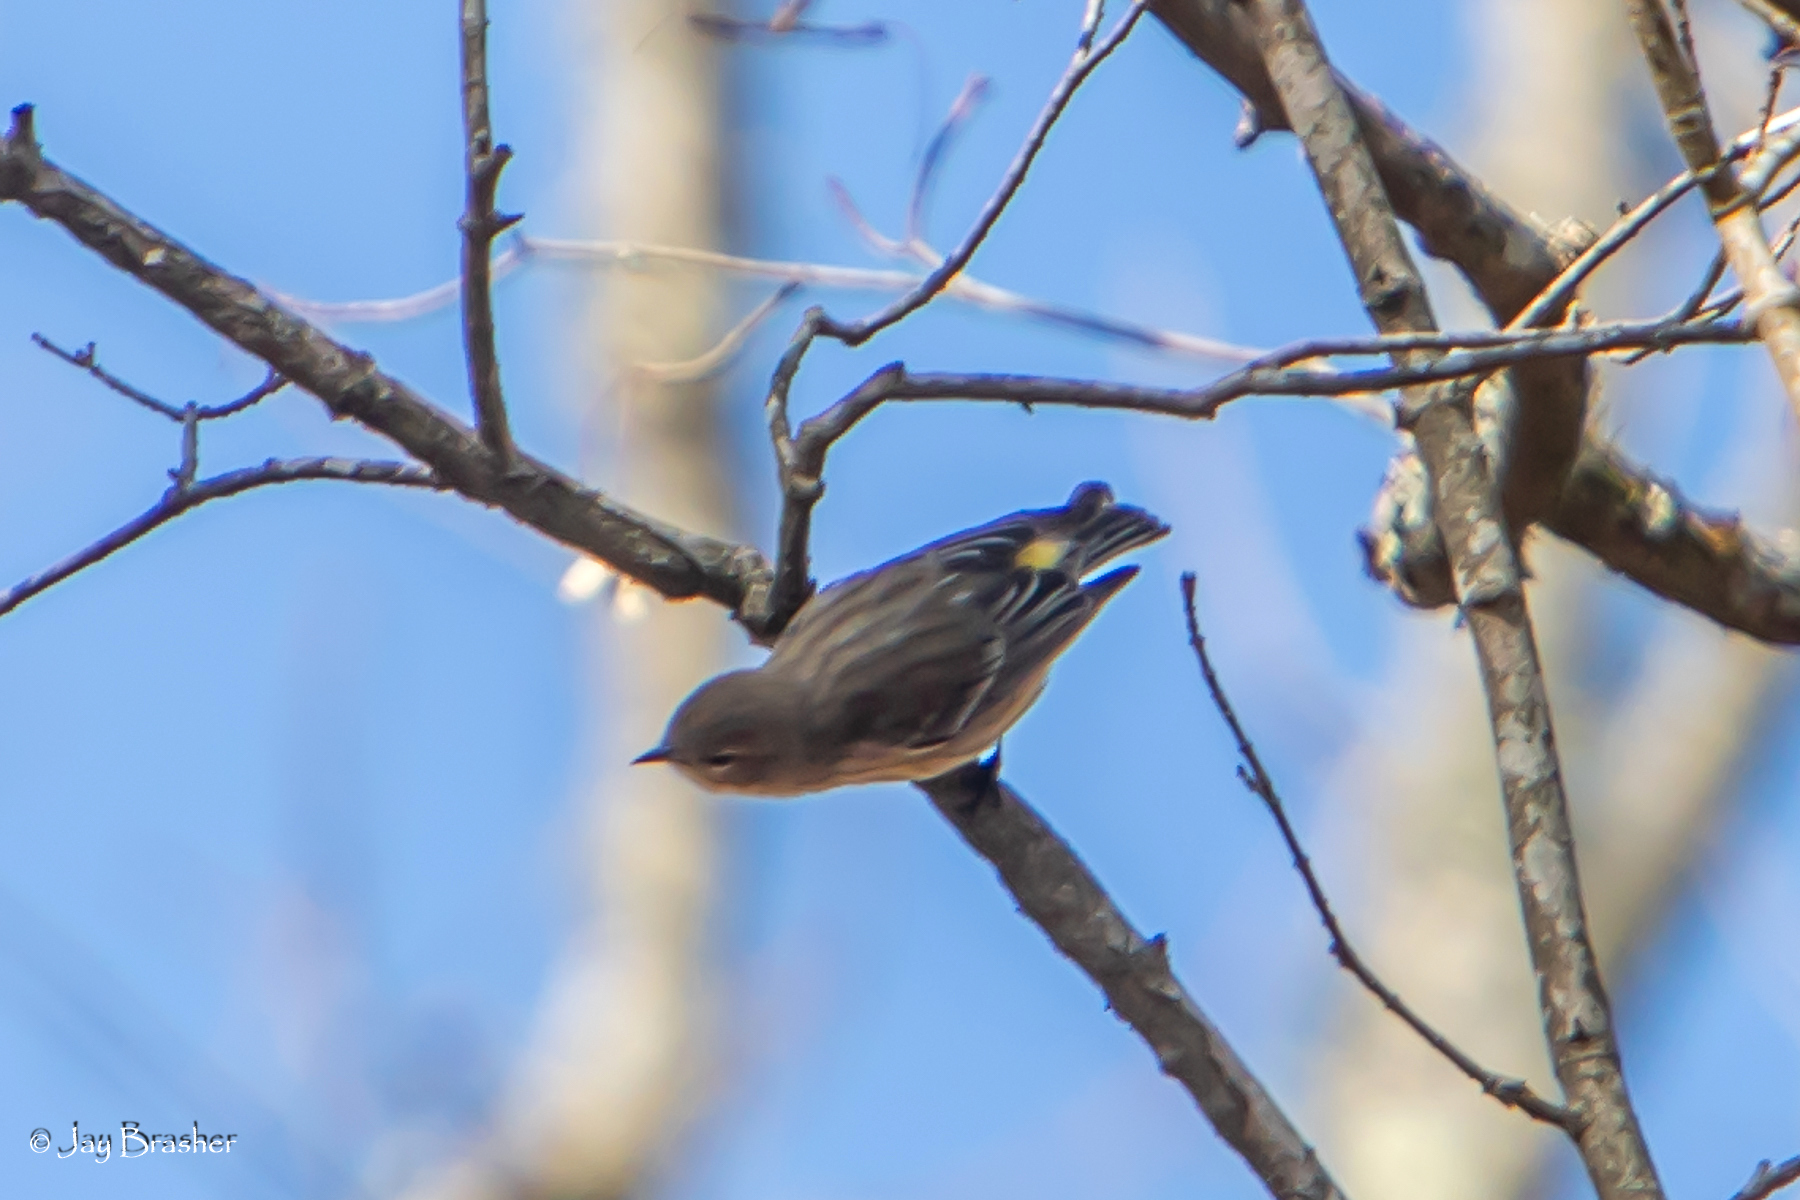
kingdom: Animalia
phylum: Chordata
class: Aves
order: Passeriformes
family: Parulidae
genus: Setophaga
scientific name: Setophaga coronata
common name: Myrtle warbler
